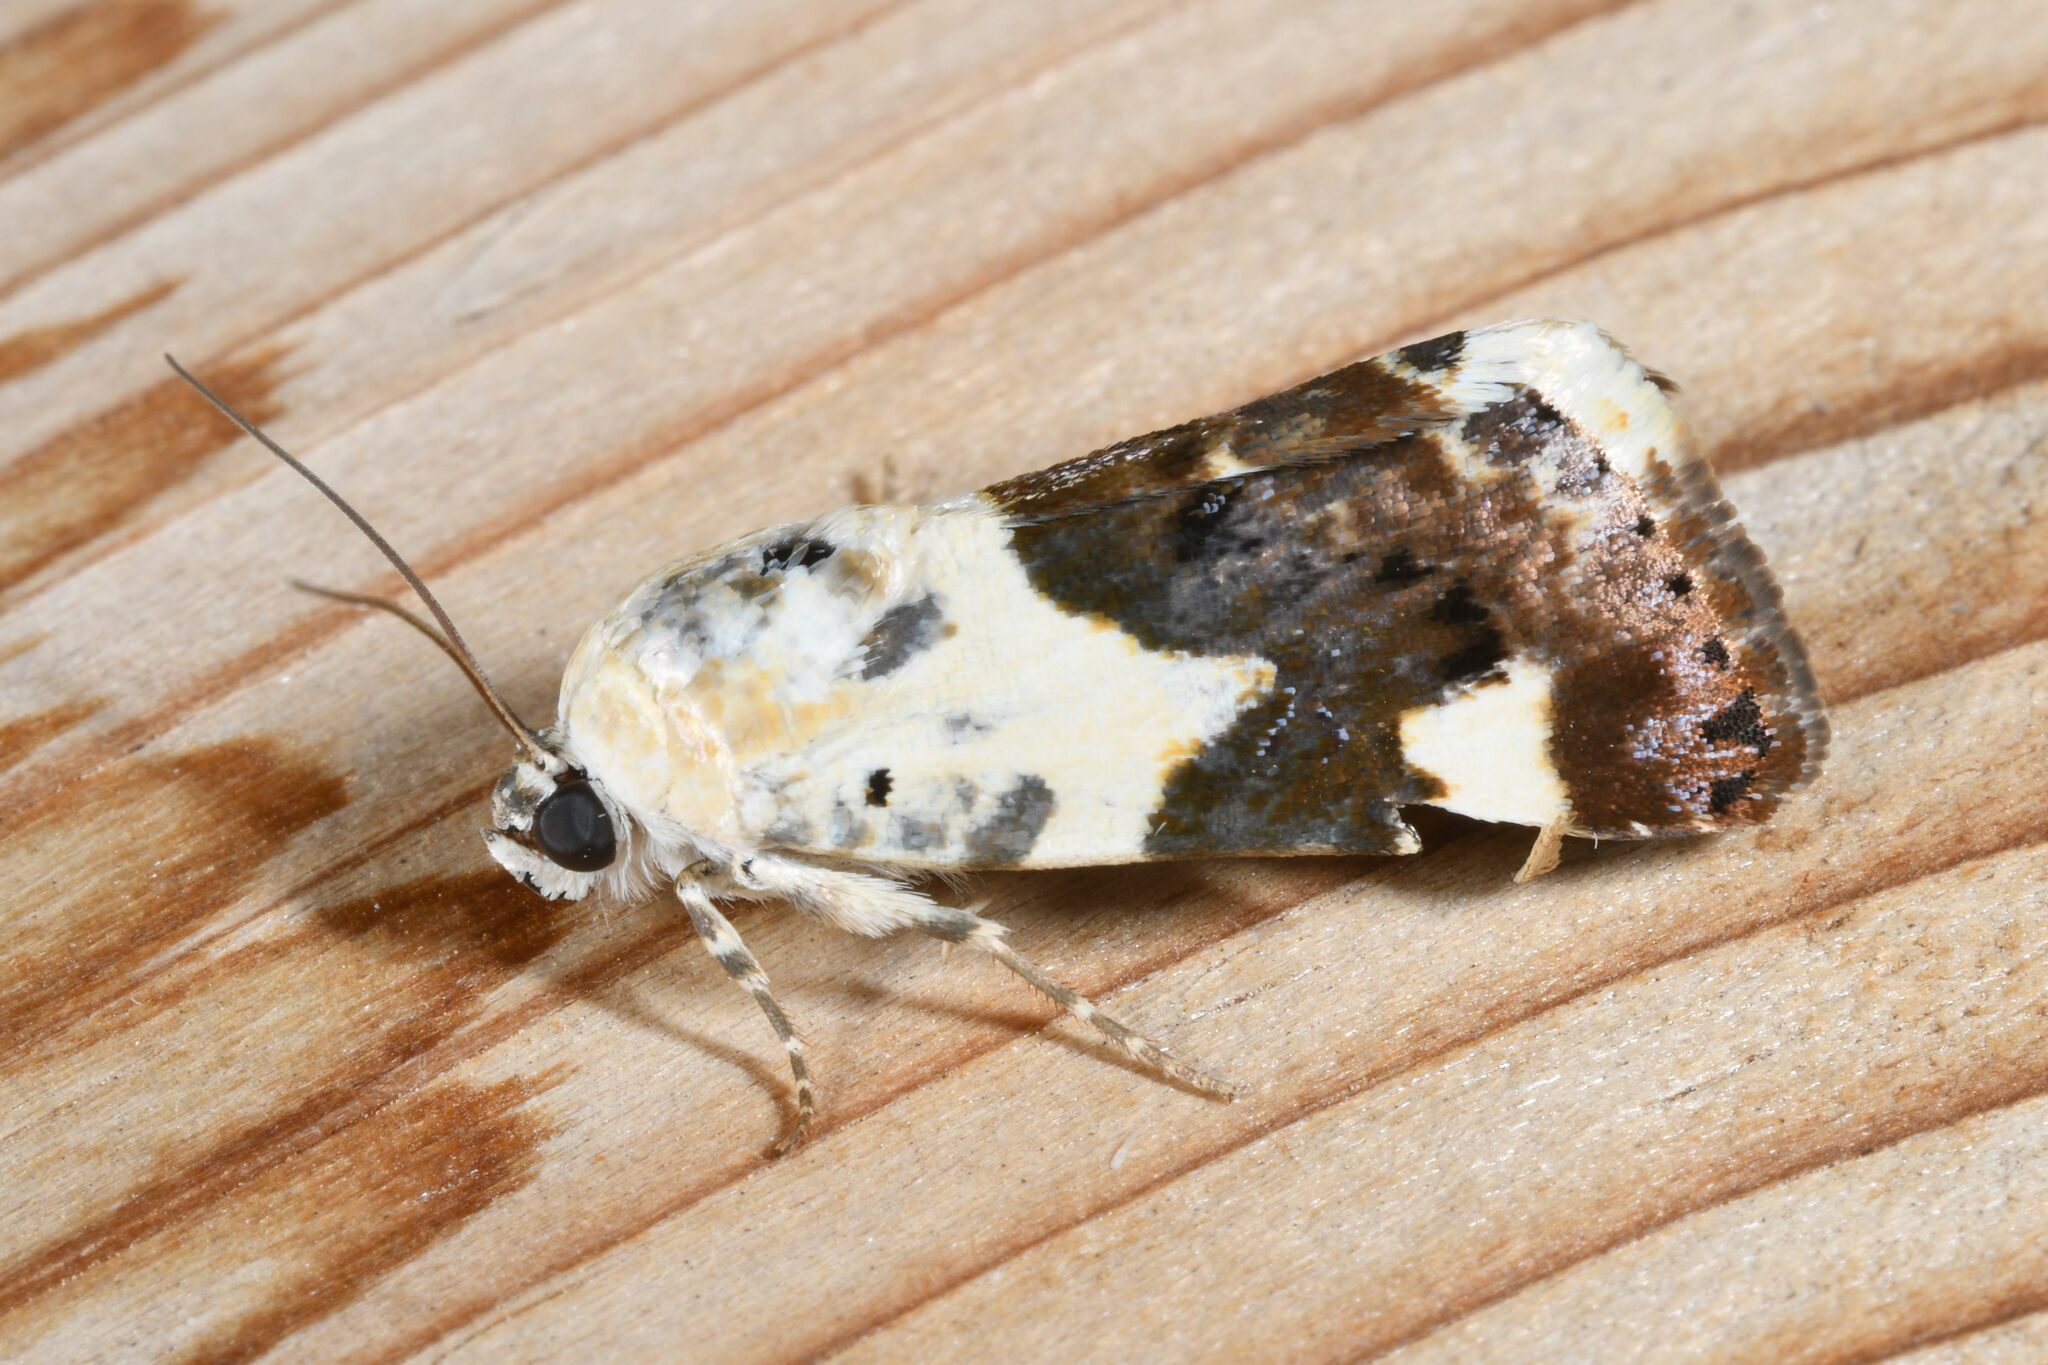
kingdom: Animalia
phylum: Arthropoda
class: Insecta
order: Lepidoptera
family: Noctuidae
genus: Acontia
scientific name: Acontia lucida
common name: Pale shoulder
